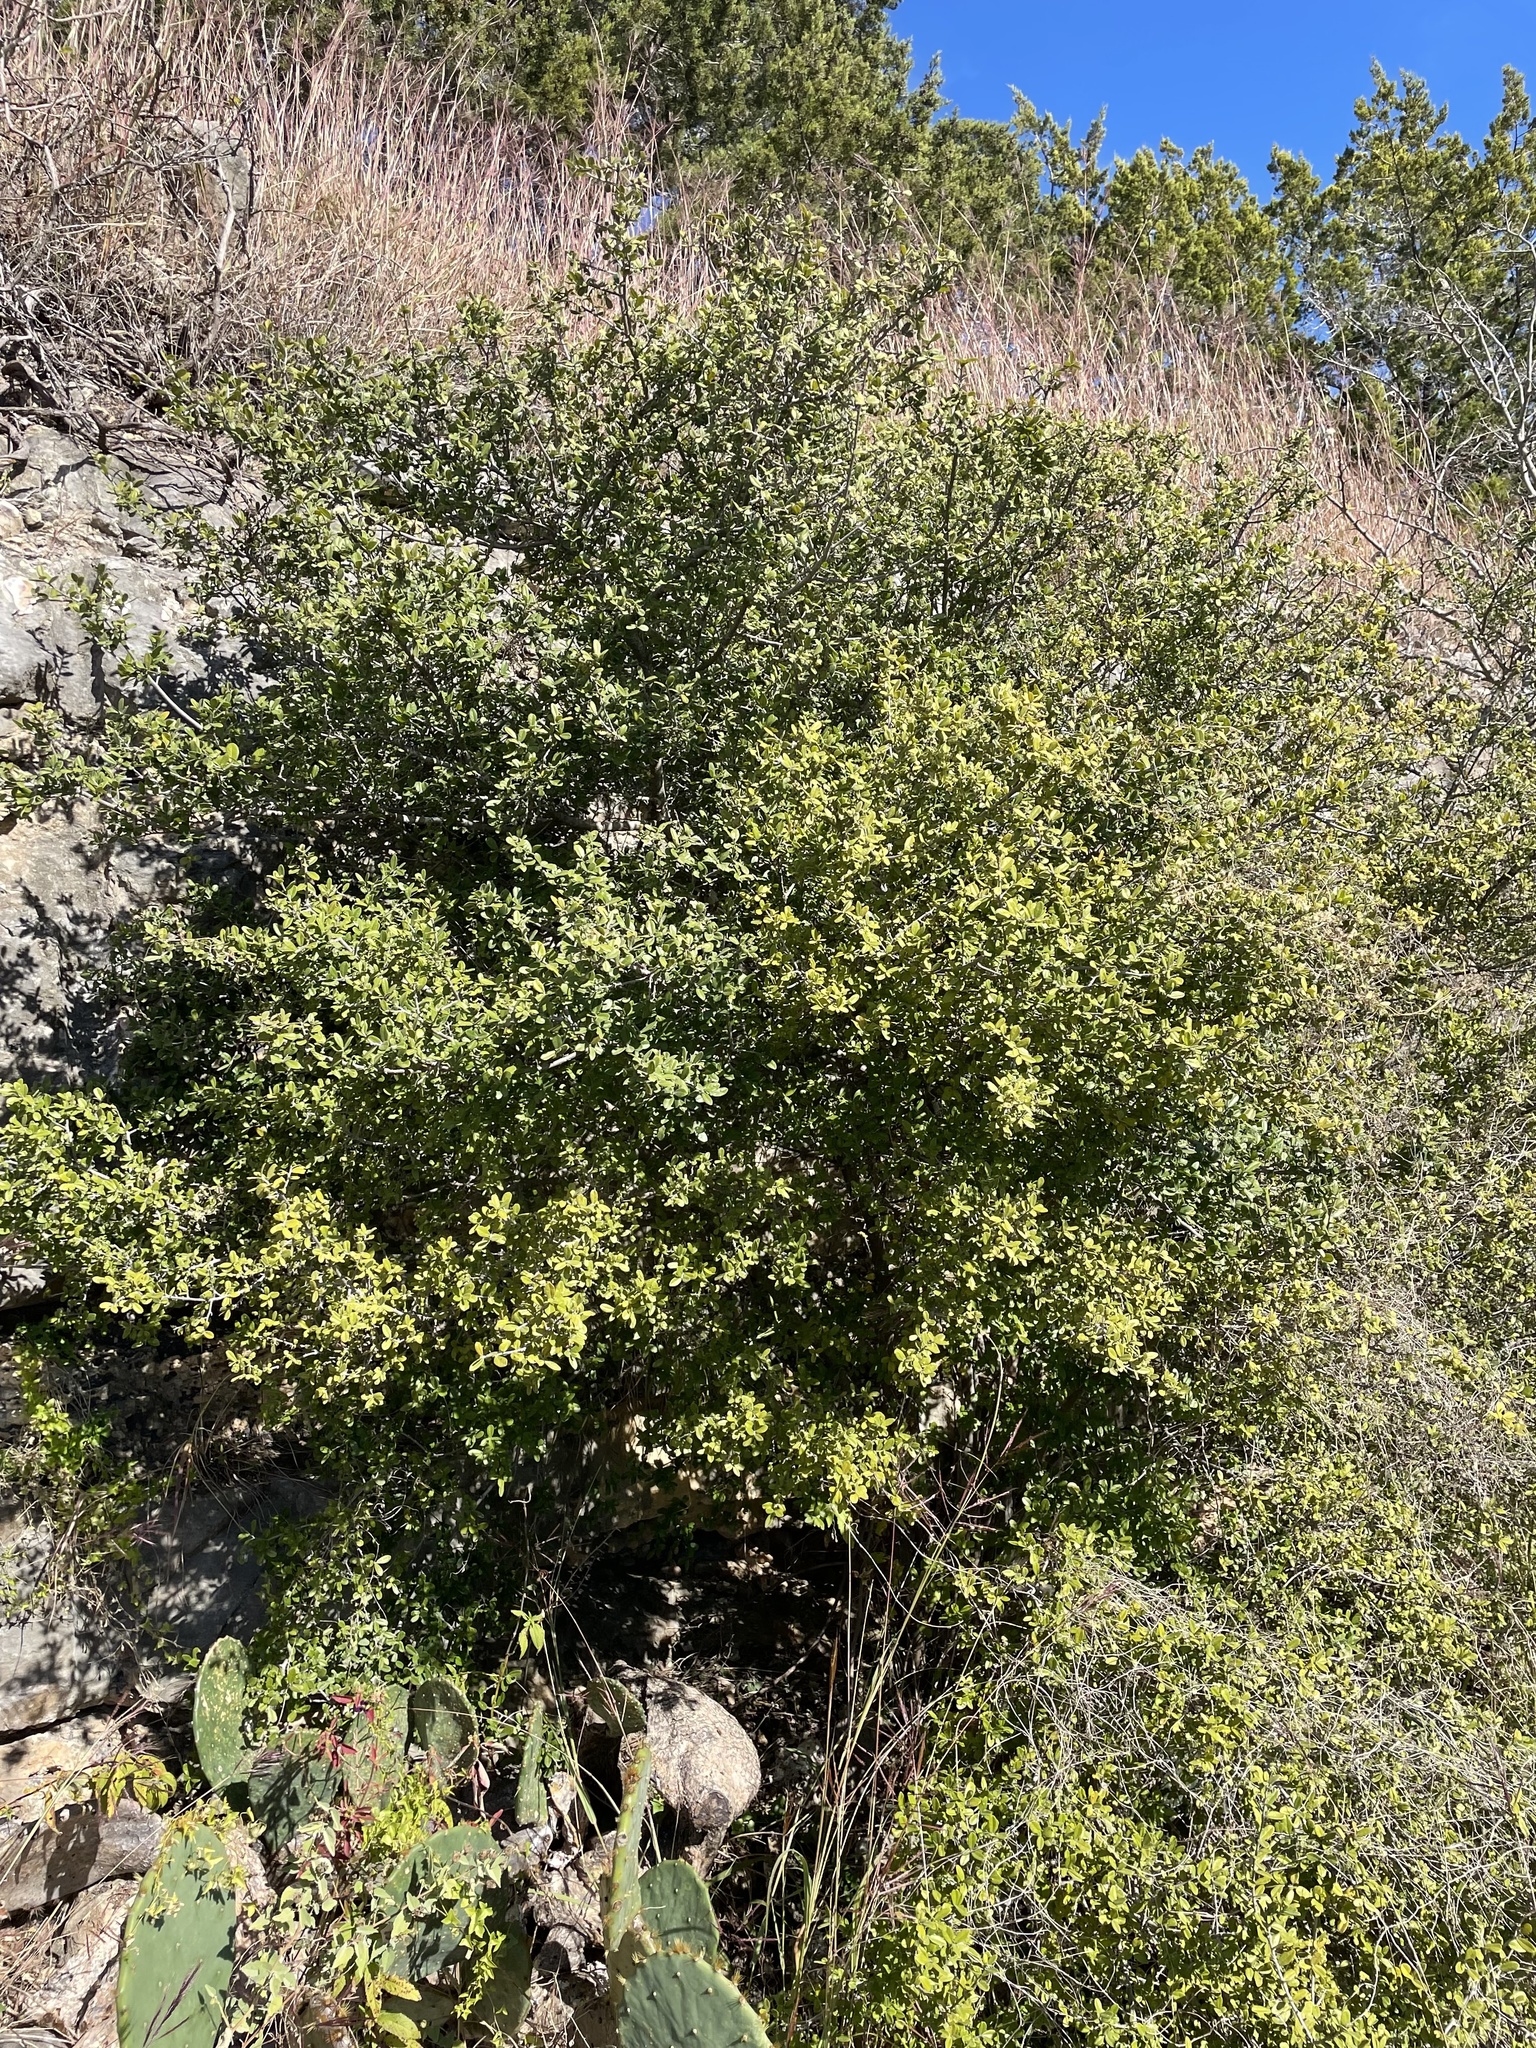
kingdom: Plantae
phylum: Tracheophyta
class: Magnoliopsida
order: Ericales
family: Ebenaceae
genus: Diospyros
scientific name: Diospyros texana
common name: Texas persimmon
